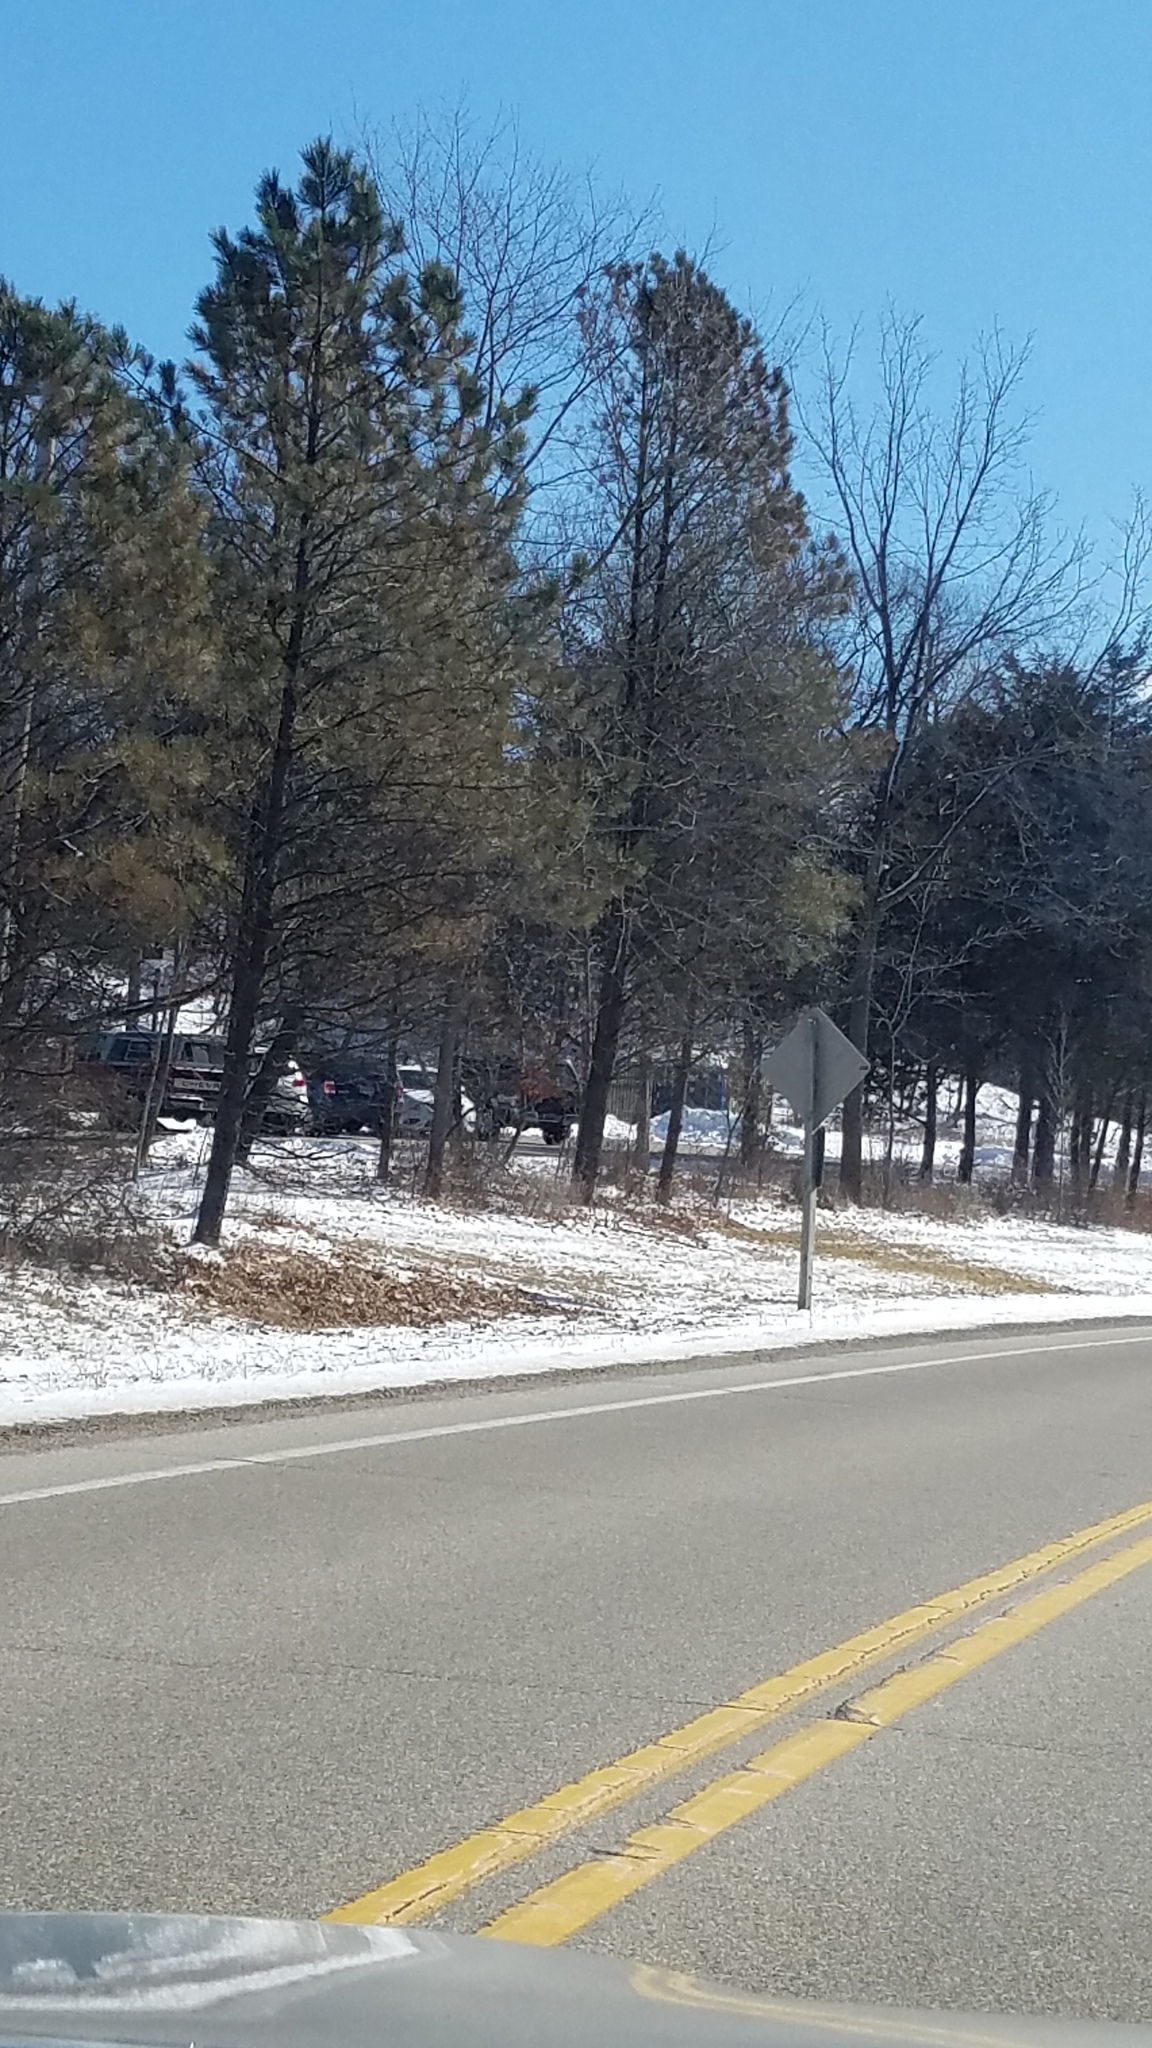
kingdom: Plantae
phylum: Tracheophyta
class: Pinopsida
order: Pinales
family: Pinaceae
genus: Pinus
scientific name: Pinus resinosa
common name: Norway pine
